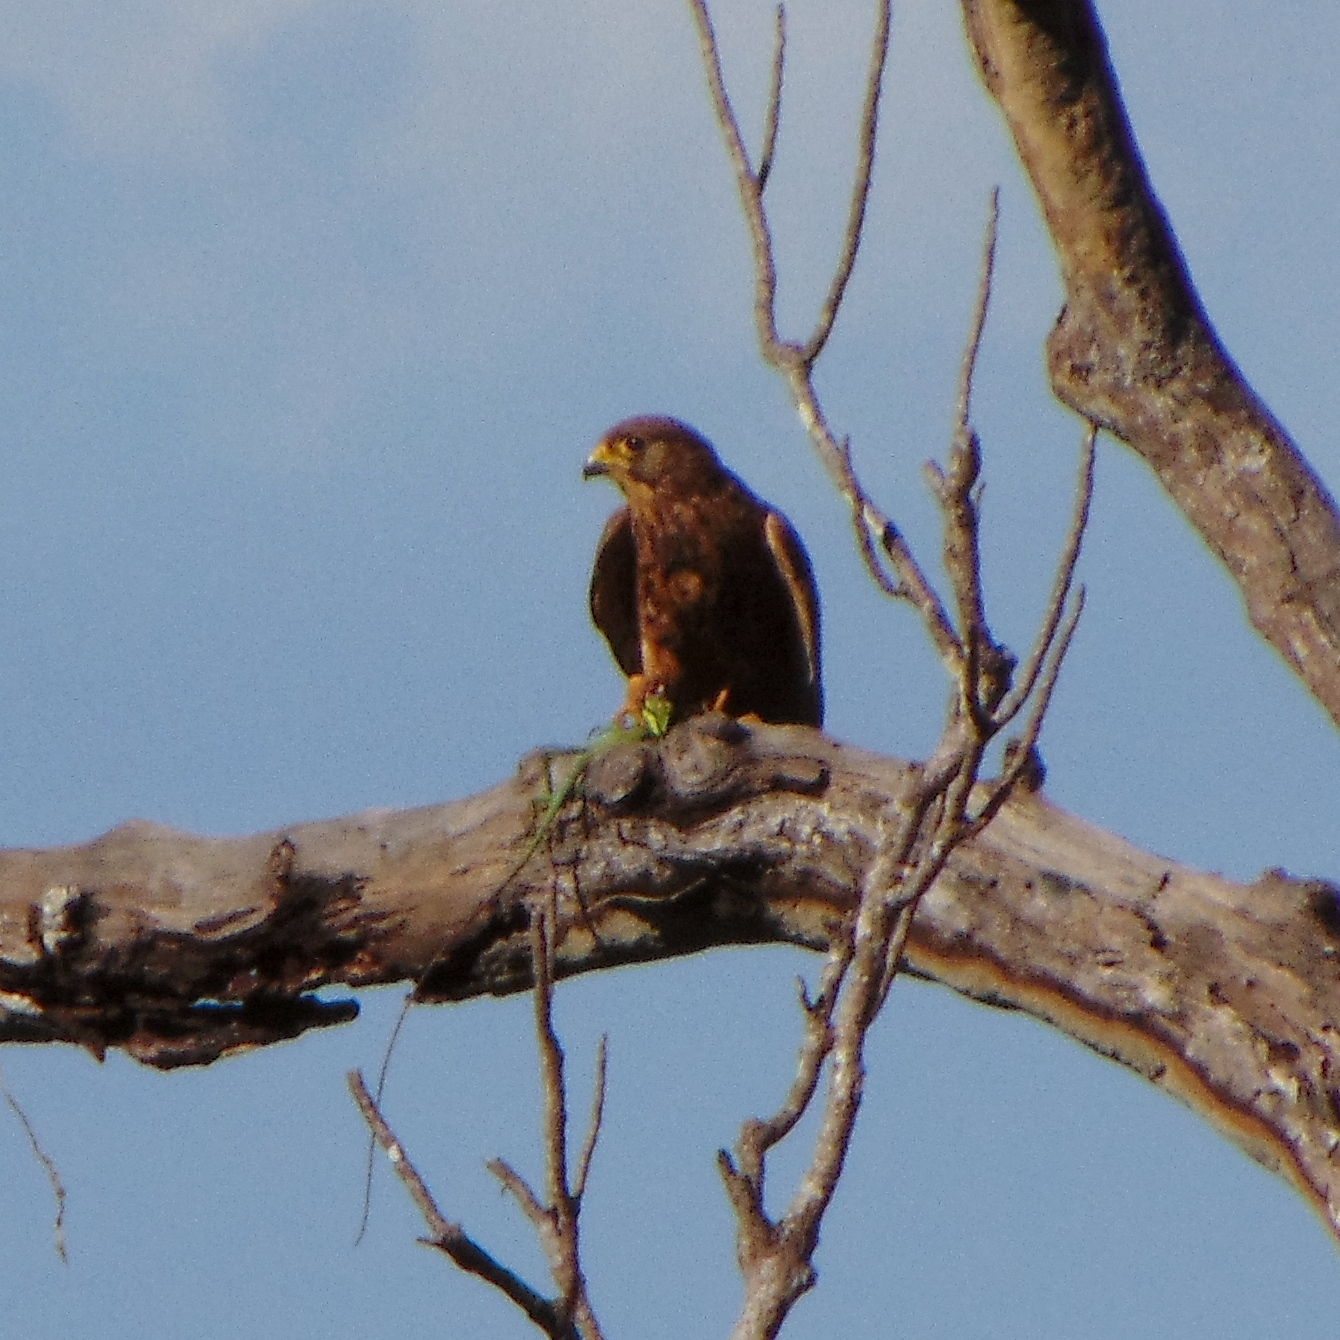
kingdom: Animalia
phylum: Chordata
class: Aves
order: Falconiformes
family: Falconidae
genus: Falco
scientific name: Falco moluccensis
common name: Spotted kestrel
